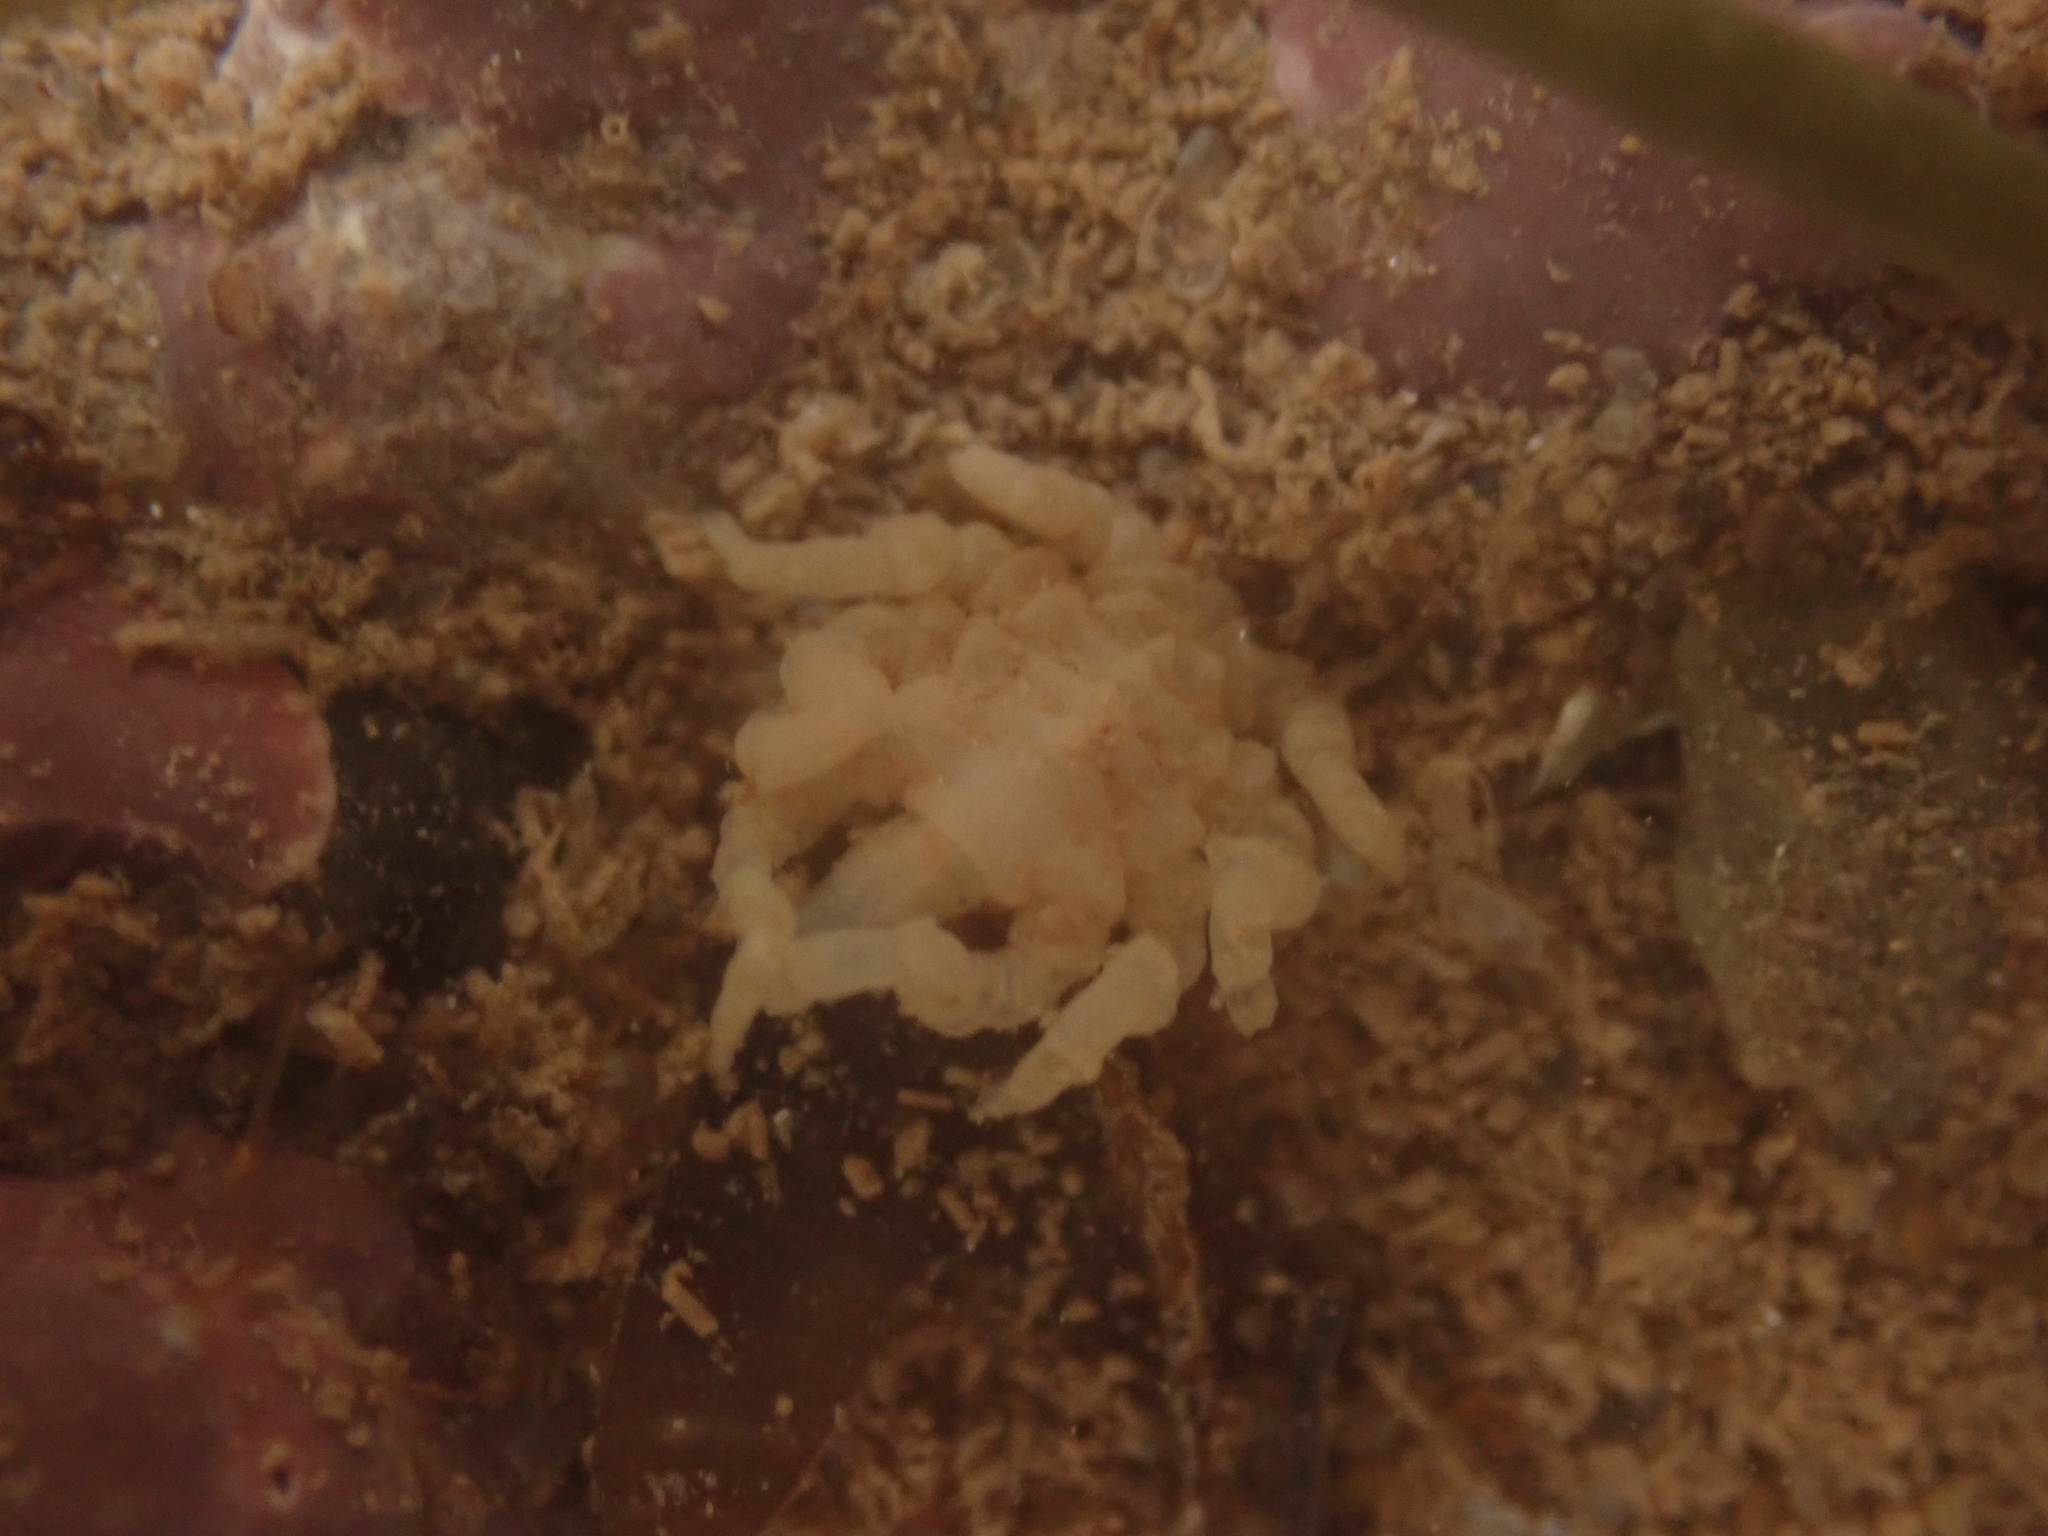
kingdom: Animalia
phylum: Arthropoda
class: Pycnogonida
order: Pantopoda
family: Pycnogonidae
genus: Pycnogonum
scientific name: Pycnogonum litorale
